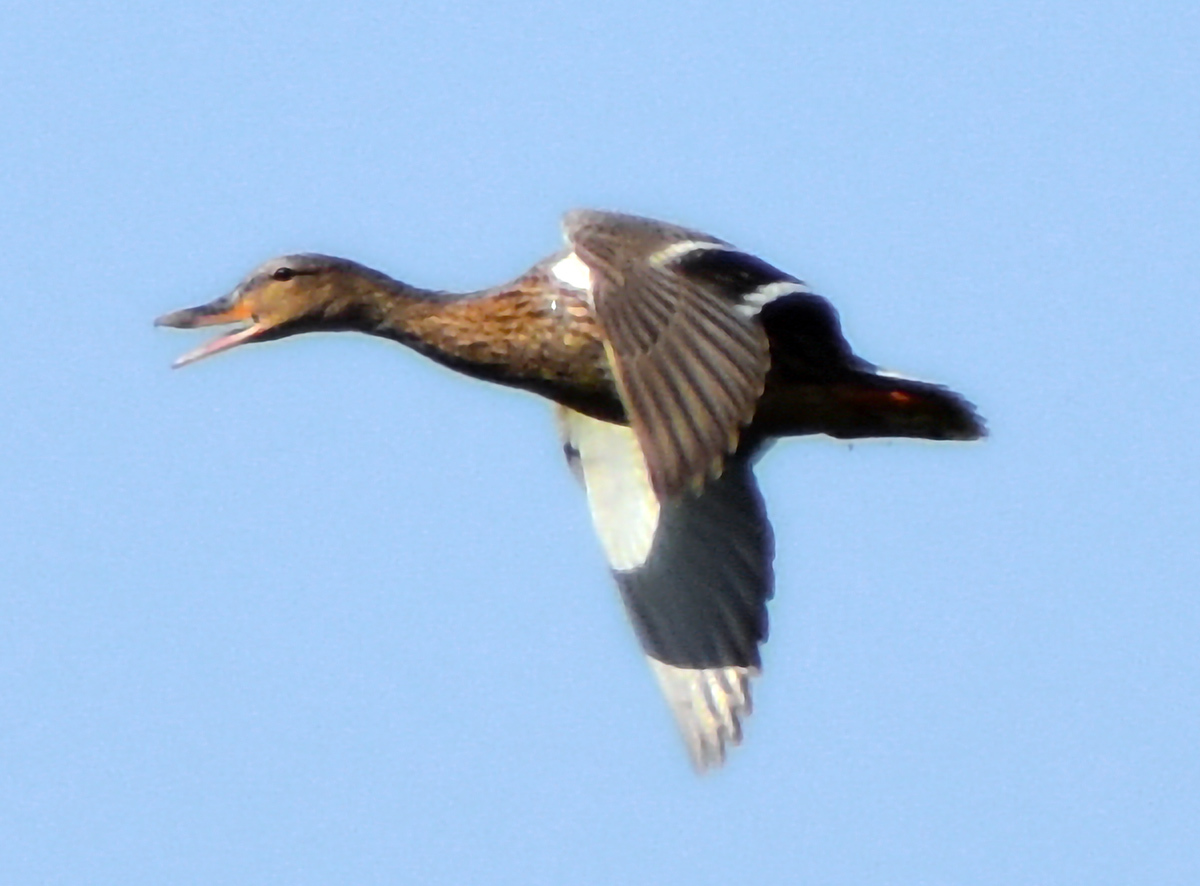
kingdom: Animalia
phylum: Chordata
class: Aves
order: Anseriformes
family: Anatidae
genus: Anas
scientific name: Anas platyrhynchos
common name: Mallard
